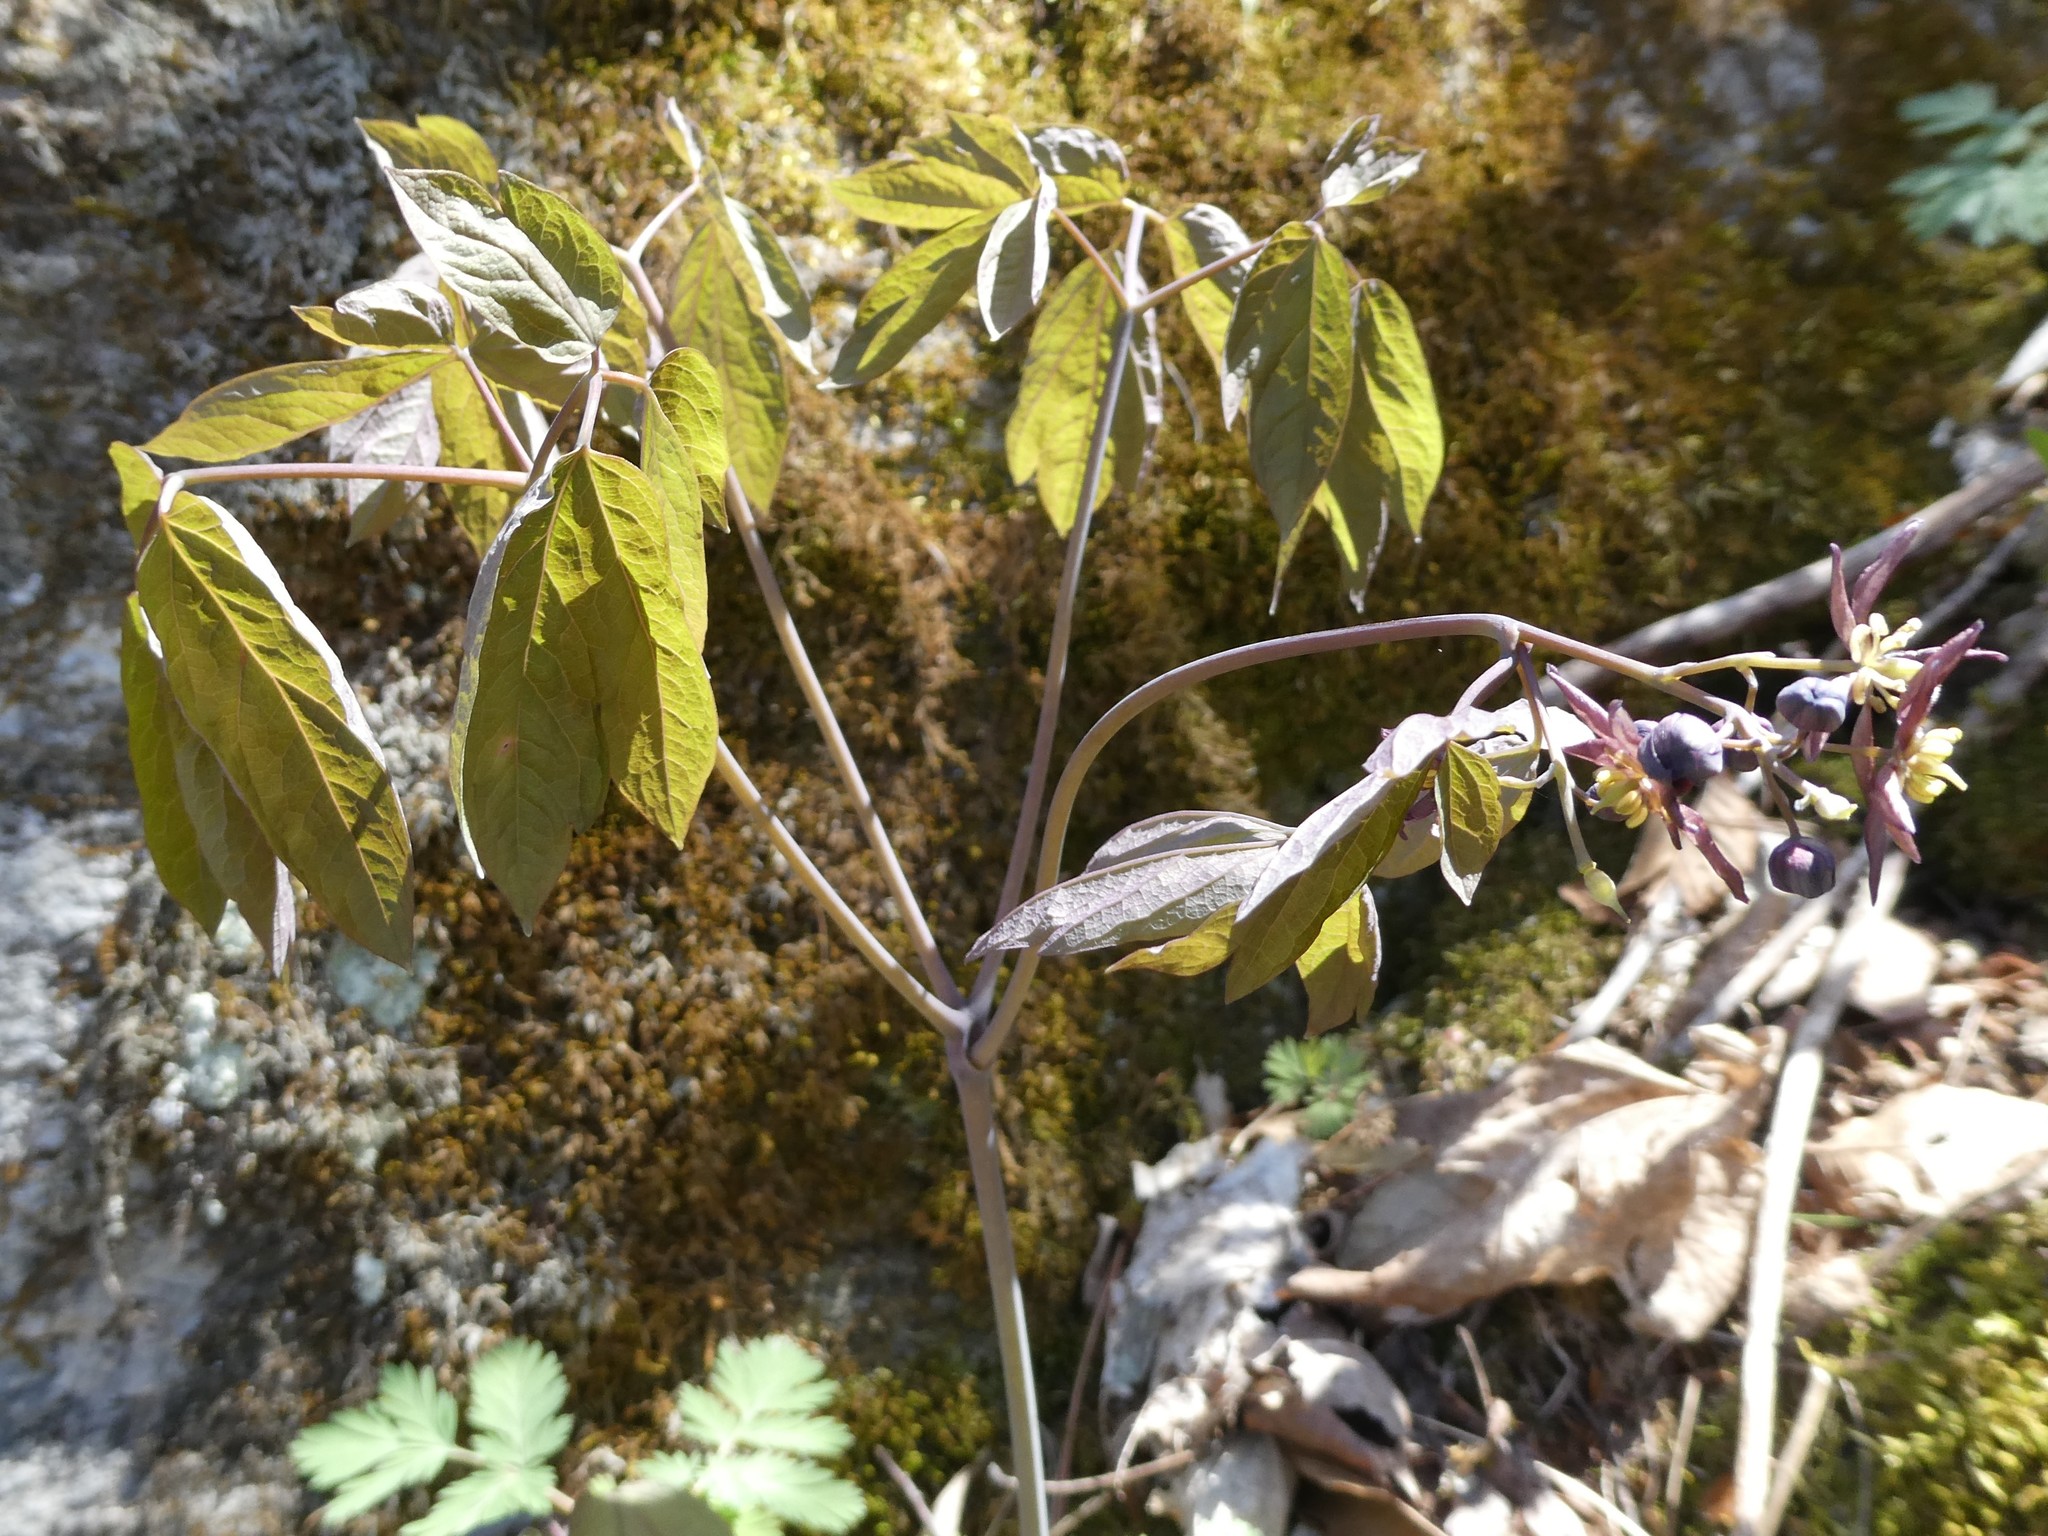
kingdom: Plantae
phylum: Tracheophyta
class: Magnoliopsida
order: Ranunculales
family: Berberidaceae
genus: Caulophyllum
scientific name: Caulophyllum giganteum
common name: Blue cohosh
